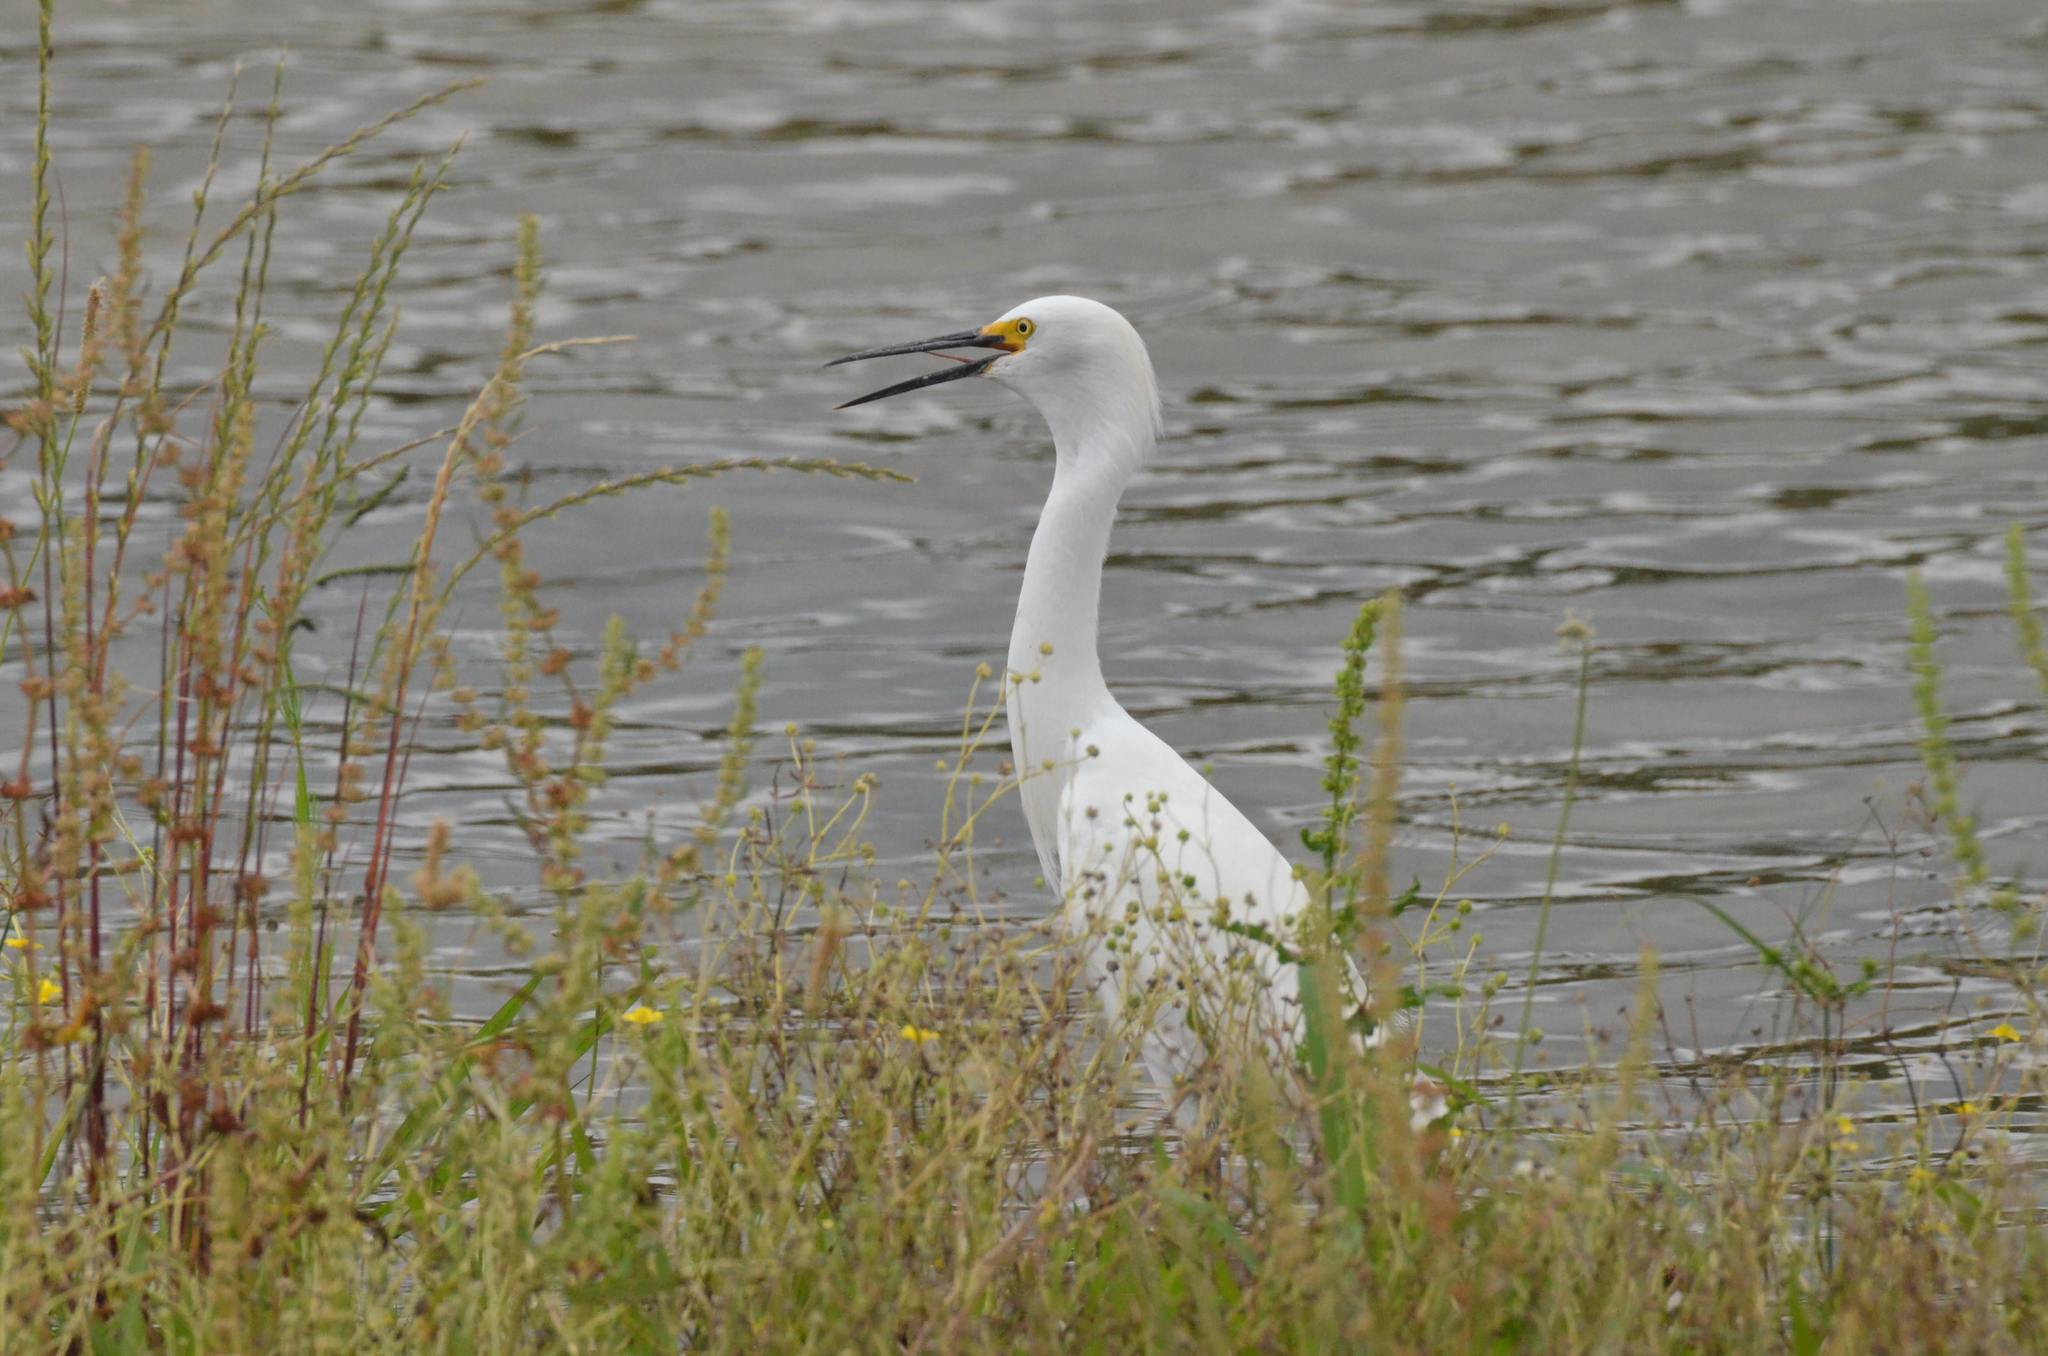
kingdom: Animalia
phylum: Chordata
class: Aves
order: Pelecaniformes
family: Ardeidae
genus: Egretta
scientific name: Egretta thula
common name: Snowy egret
